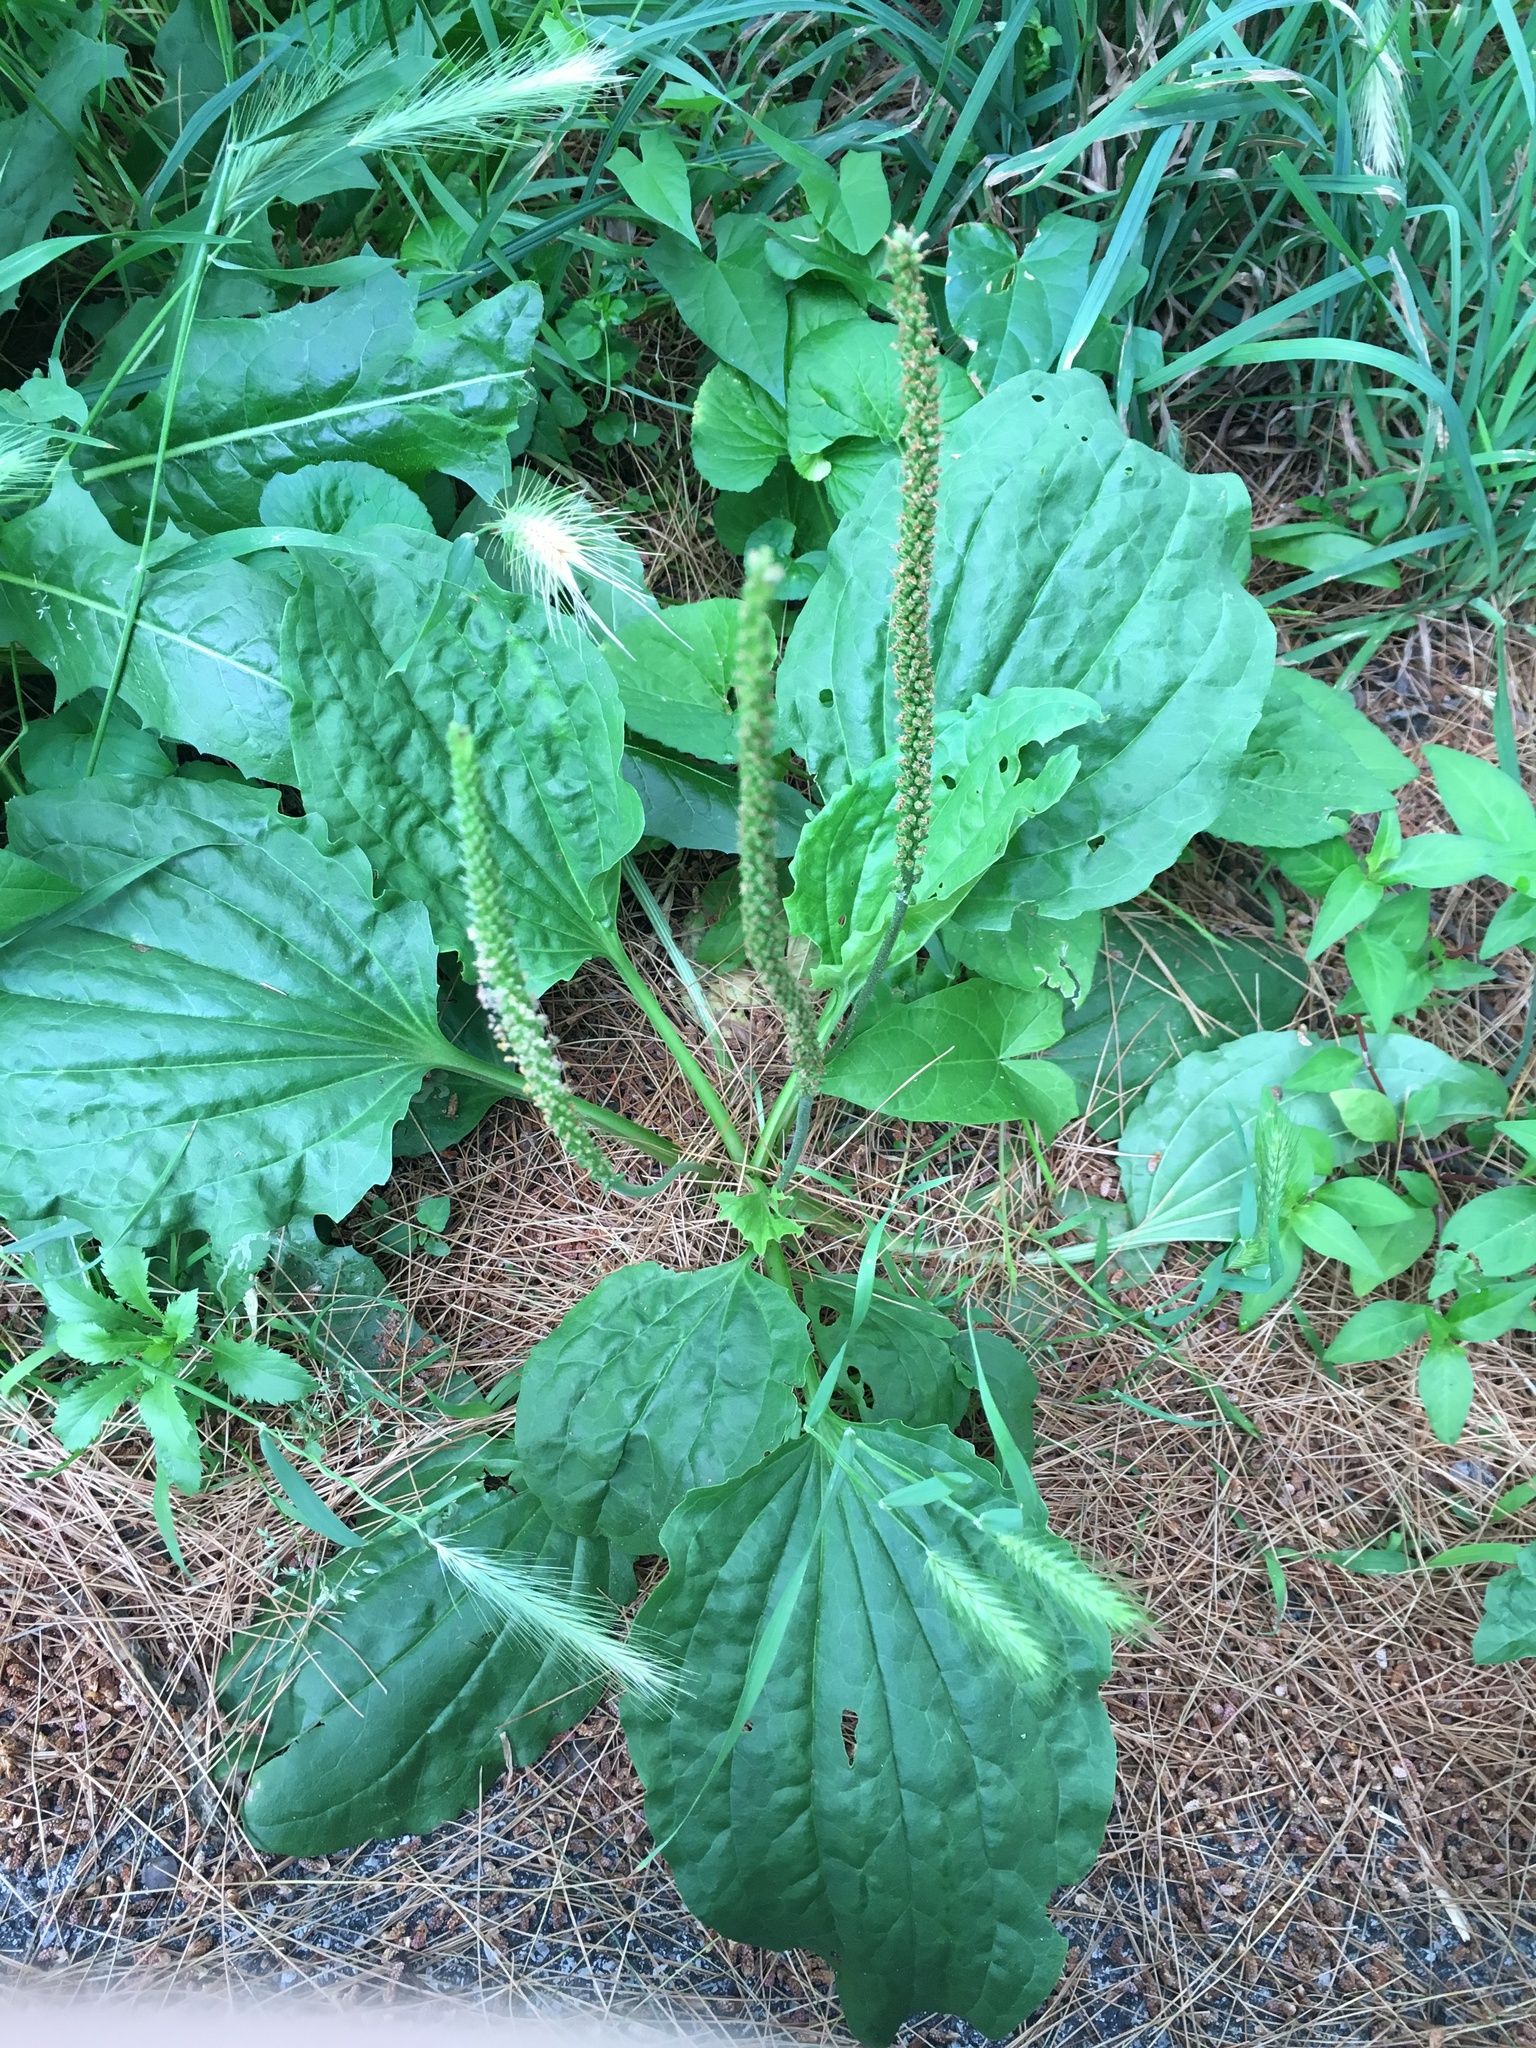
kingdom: Plantae
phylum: Tracheophyta
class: Magnoliopsida
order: Lamiales
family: Plantaginaceae
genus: Plantago
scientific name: Plantago major
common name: Common plantain
